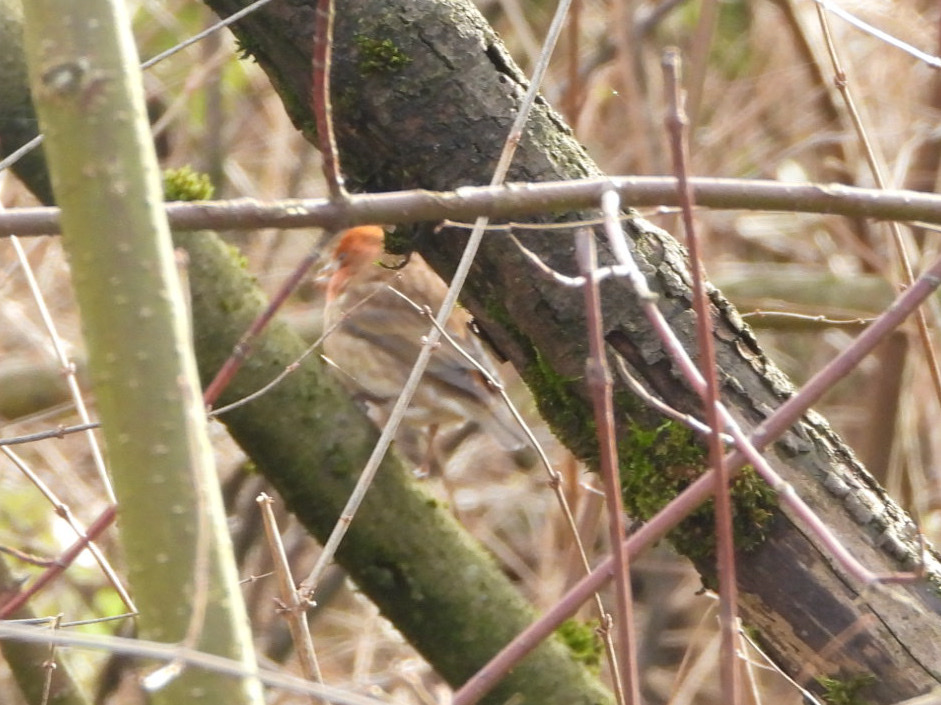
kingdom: Animalia
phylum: Chordata
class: Aves
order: Passeriformes
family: Fringillidae
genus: Haemorhous
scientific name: Haemorhous purpureus
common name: Purple finch
